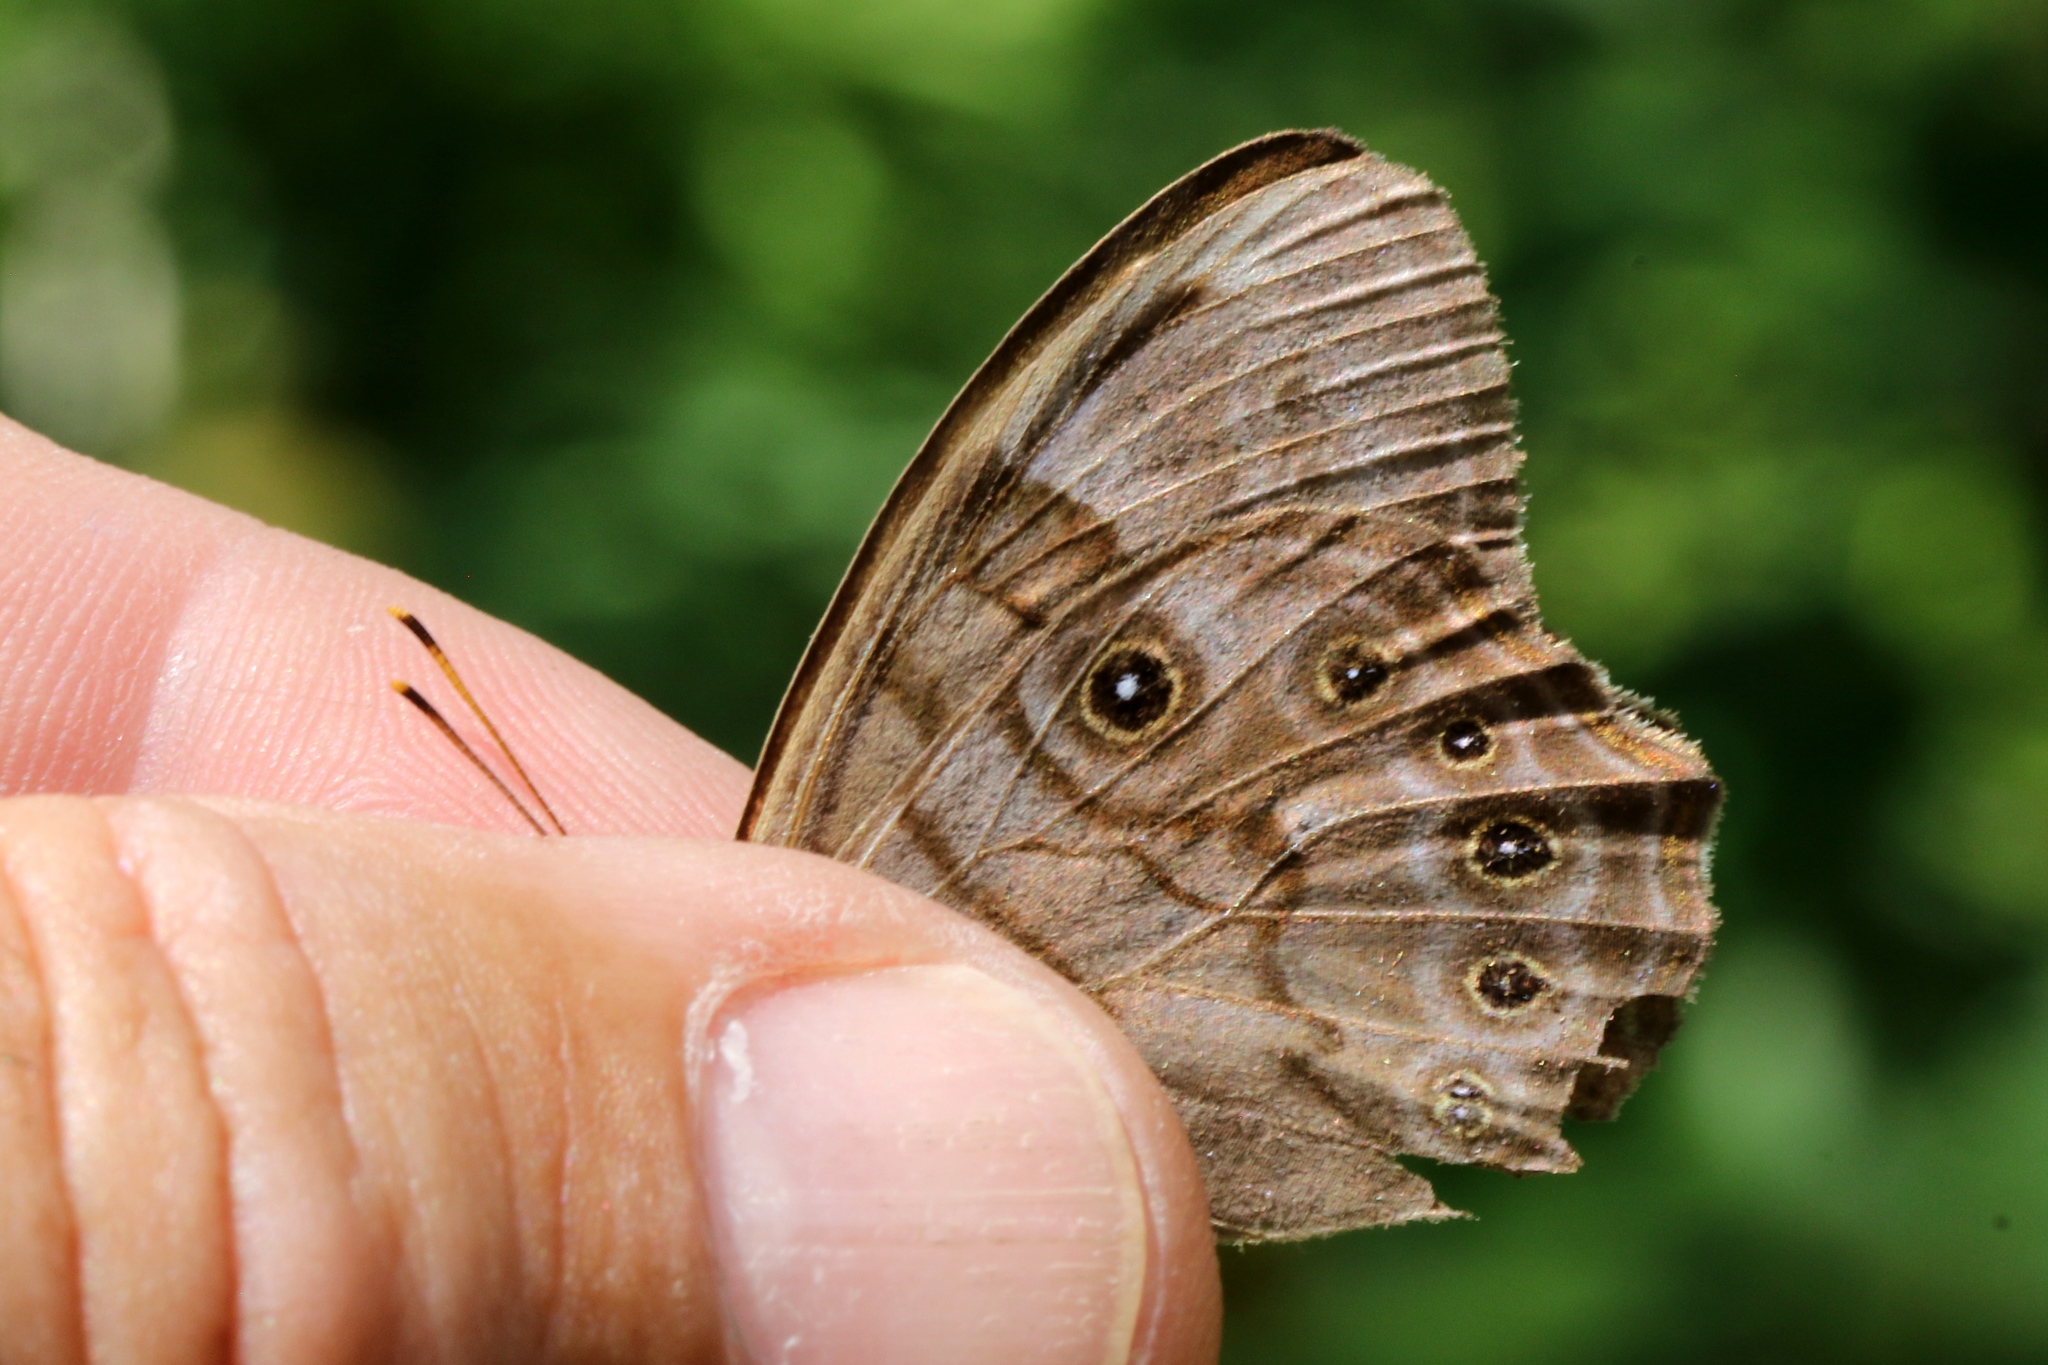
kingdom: Animalia
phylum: Arthropoda
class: Insecta
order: Lepidoptera
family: Nymphalidae
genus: Lethe
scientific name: Lethe anthedon
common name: Northern pearly-eye
